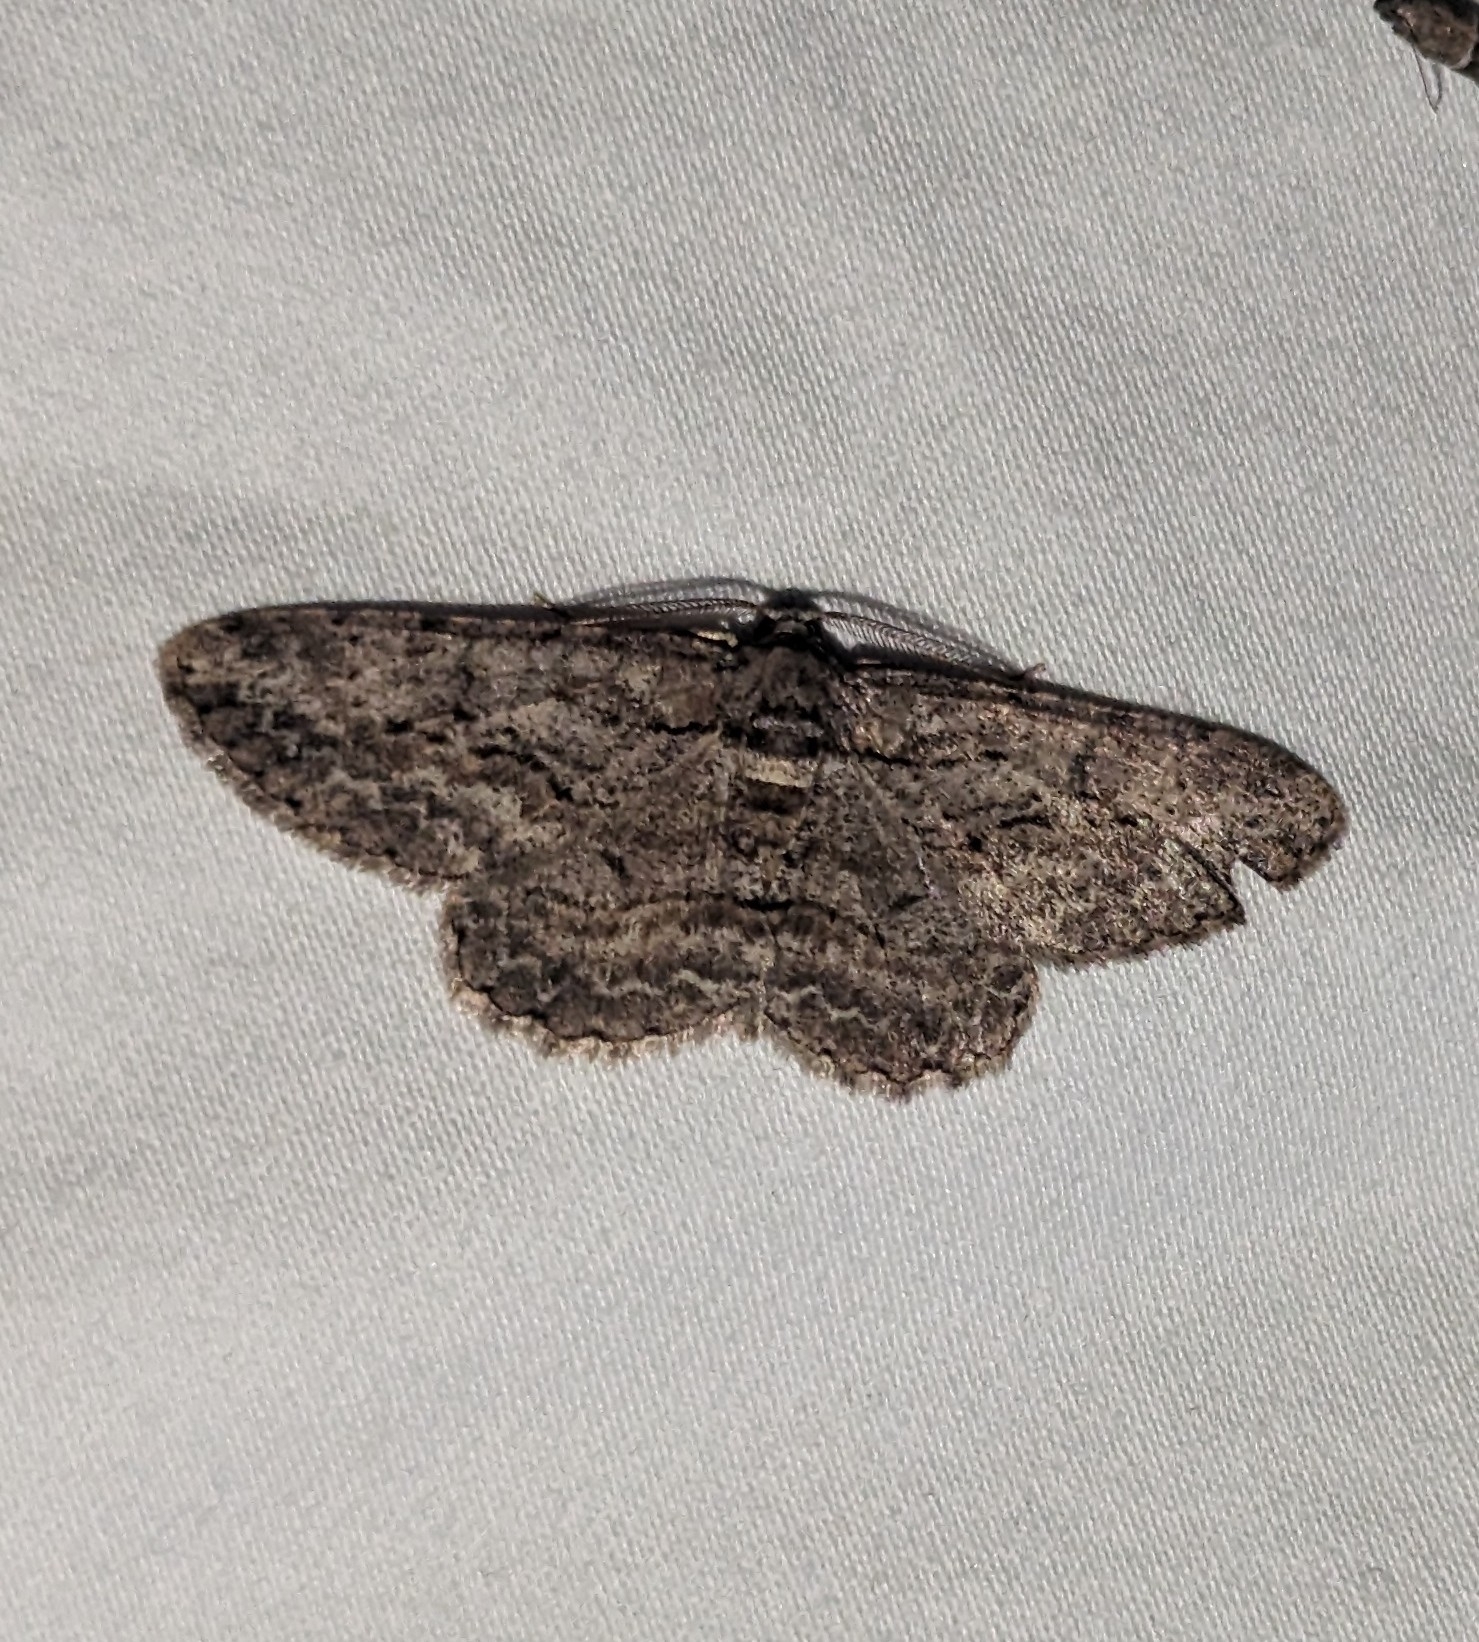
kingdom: Animalia
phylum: Arthropoda
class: Insecta
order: Lepidoptera
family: Geometridae
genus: Anavitrinella
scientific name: Anavitrinella pampinaria
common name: Common gray
